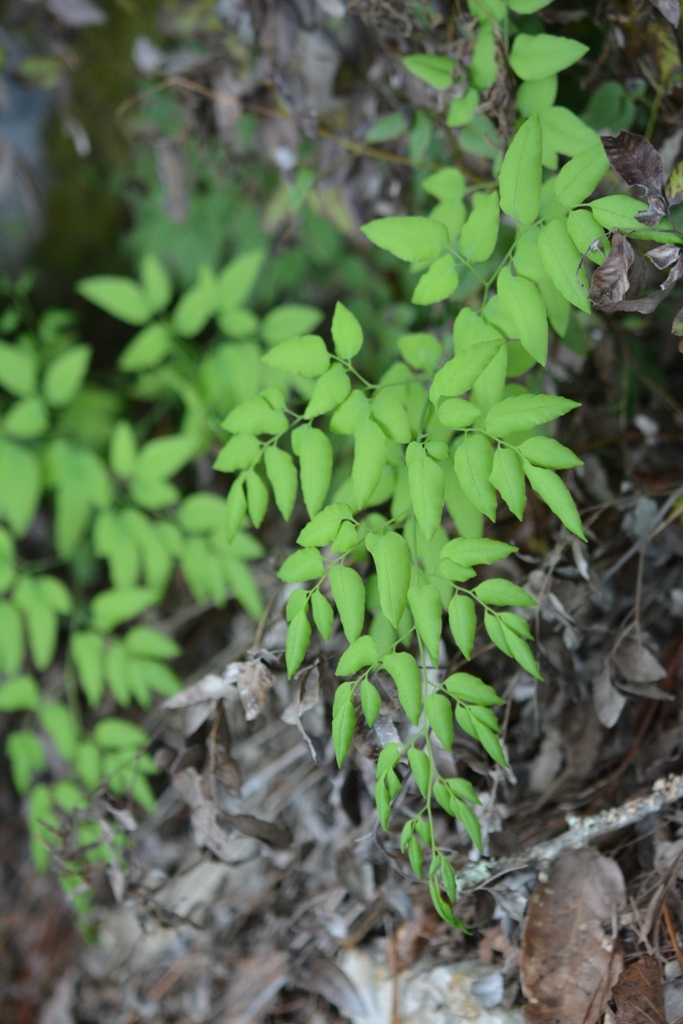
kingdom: Plantae
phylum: Tracheophyta
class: Polypodiopsida
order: Polypodiales
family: Pteridaceae
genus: Llavea
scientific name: Llavea cordifolia
